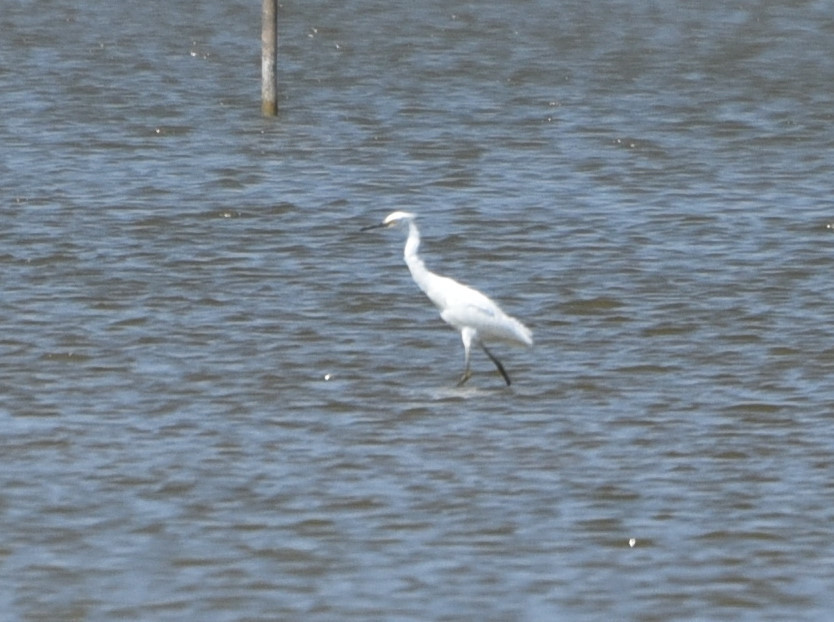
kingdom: Animalia
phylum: Chordata
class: Aves
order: Pelecaniformes
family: Ardeidae
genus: Egretta
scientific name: Egretta thula
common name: Snowy egret
